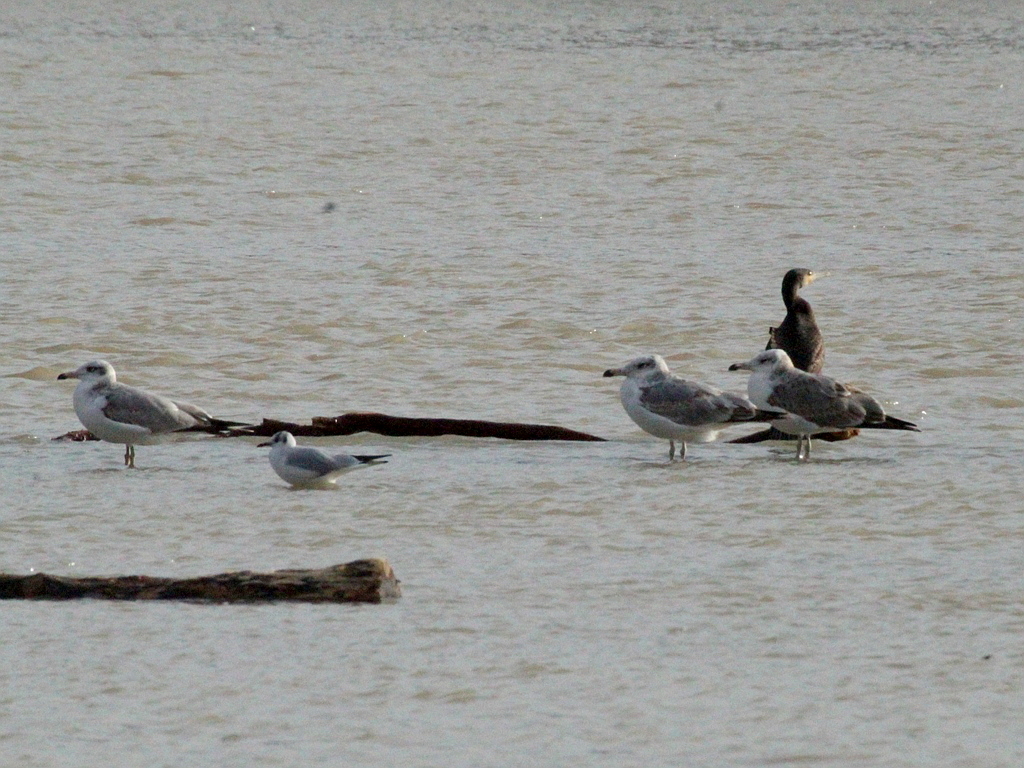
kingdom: Animalia
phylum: Chordata
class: Aves
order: Charadriiformes
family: Laridae
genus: Ichthyaetus
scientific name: Ichthyaetus ichthyaetus
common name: Pallas's gull
